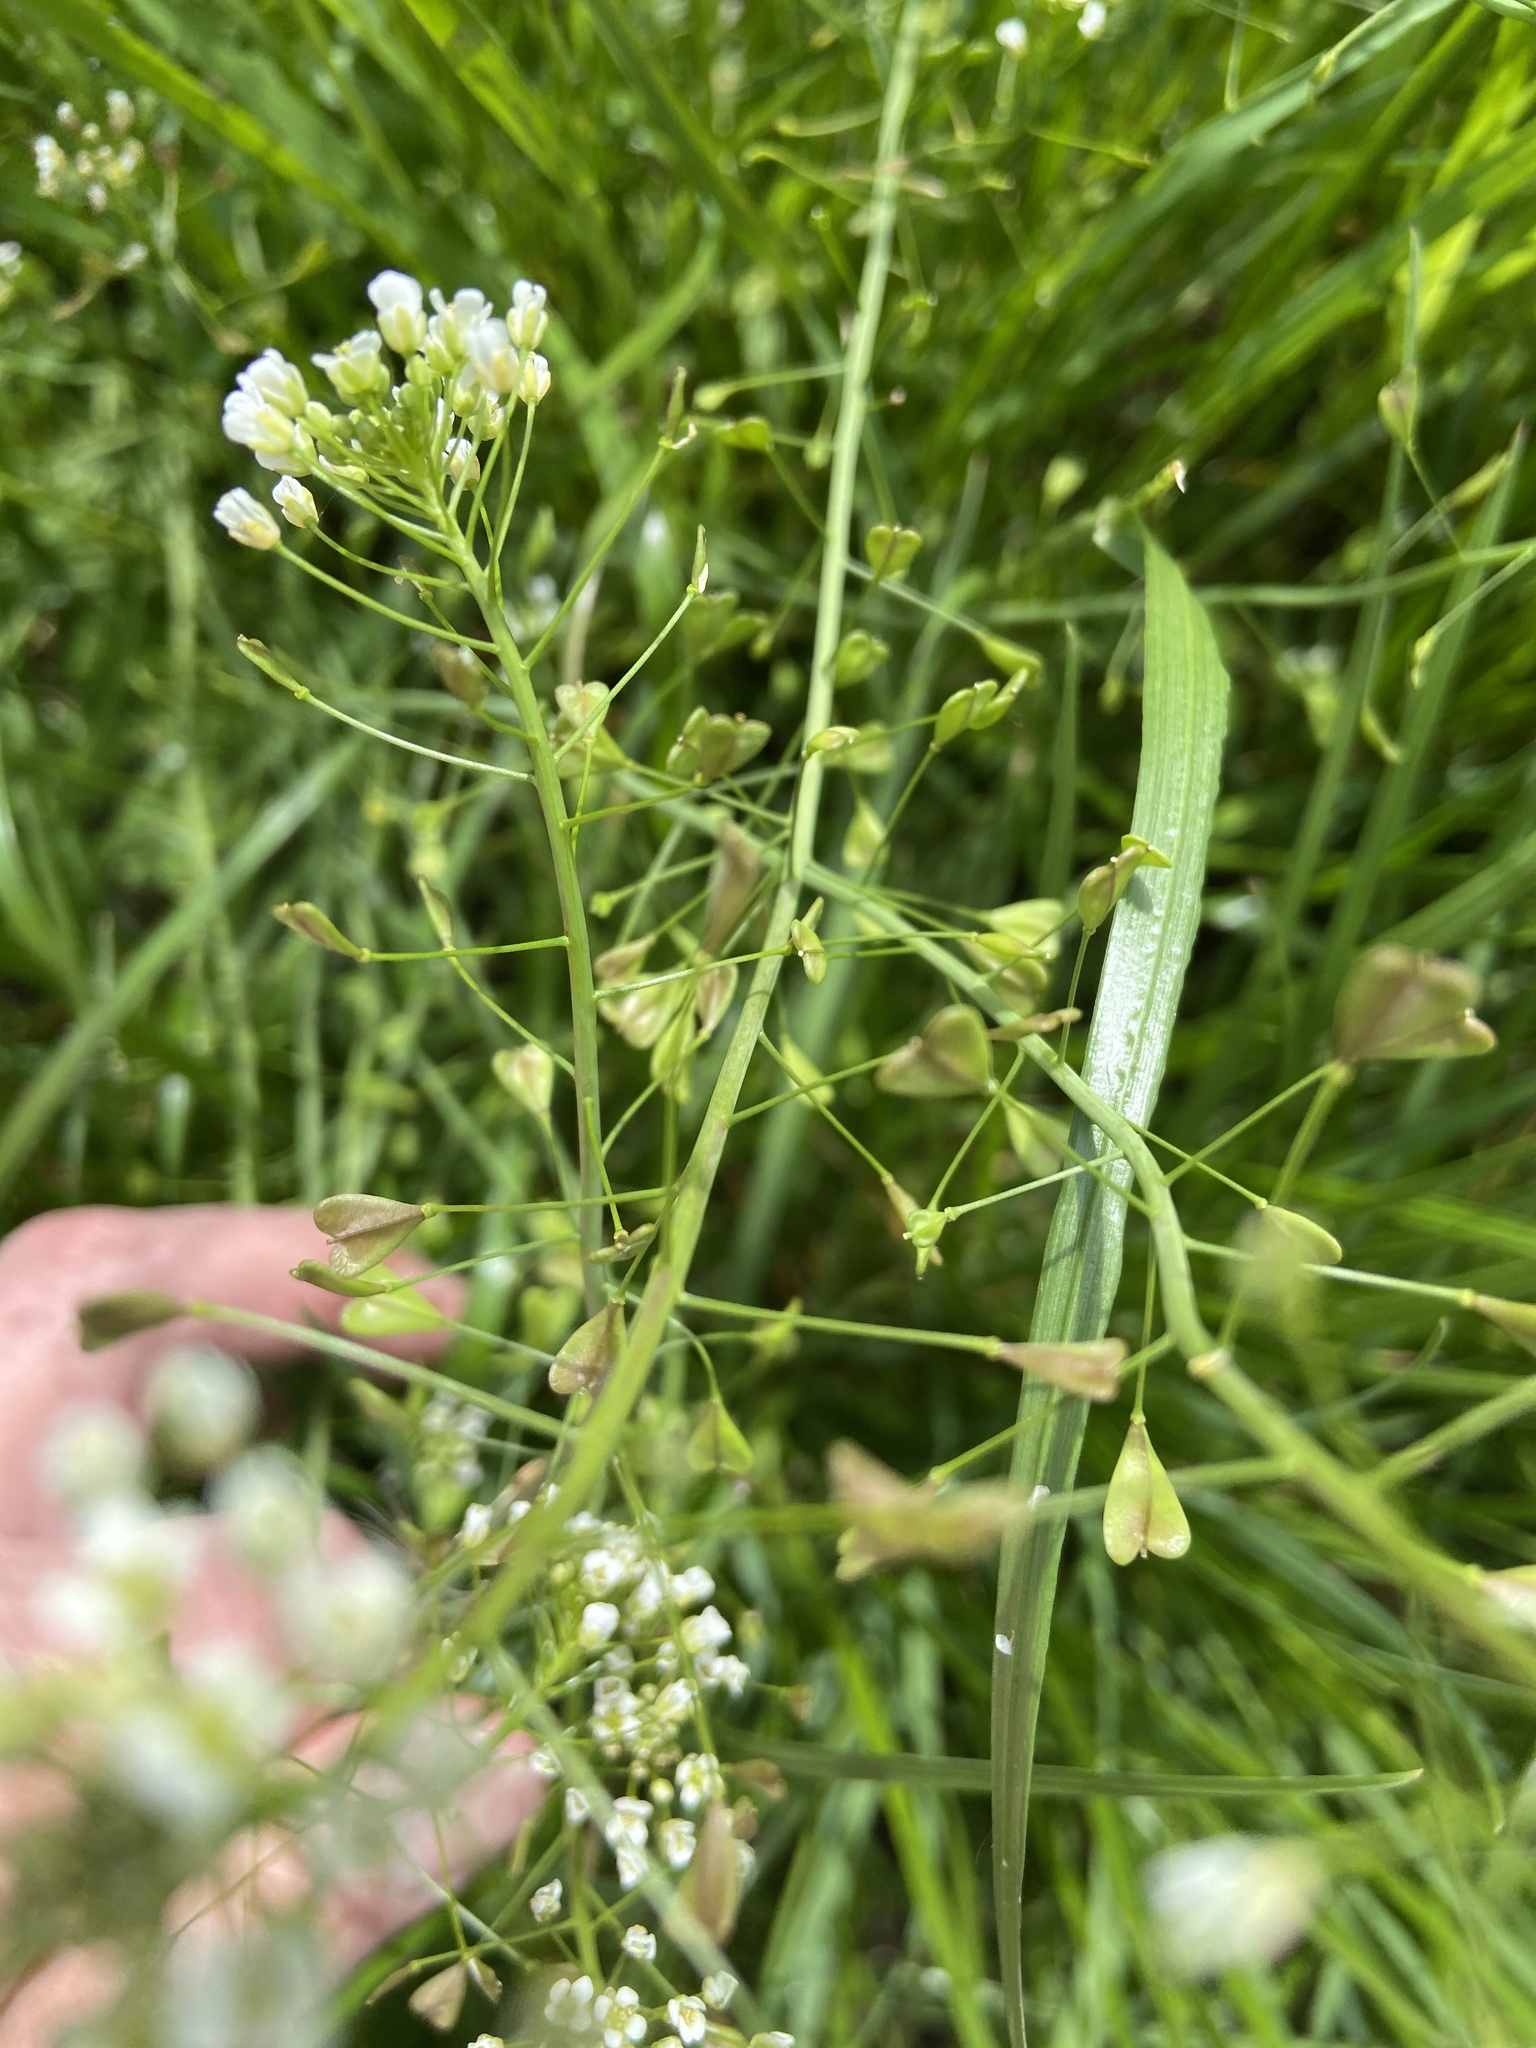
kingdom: Plantae
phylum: Tracheophyta
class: Magnoliopsida
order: Brassicales
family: Brassicaceae
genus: Capsella
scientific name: Capsella bursa-pastoris
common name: Shepherd's purse
